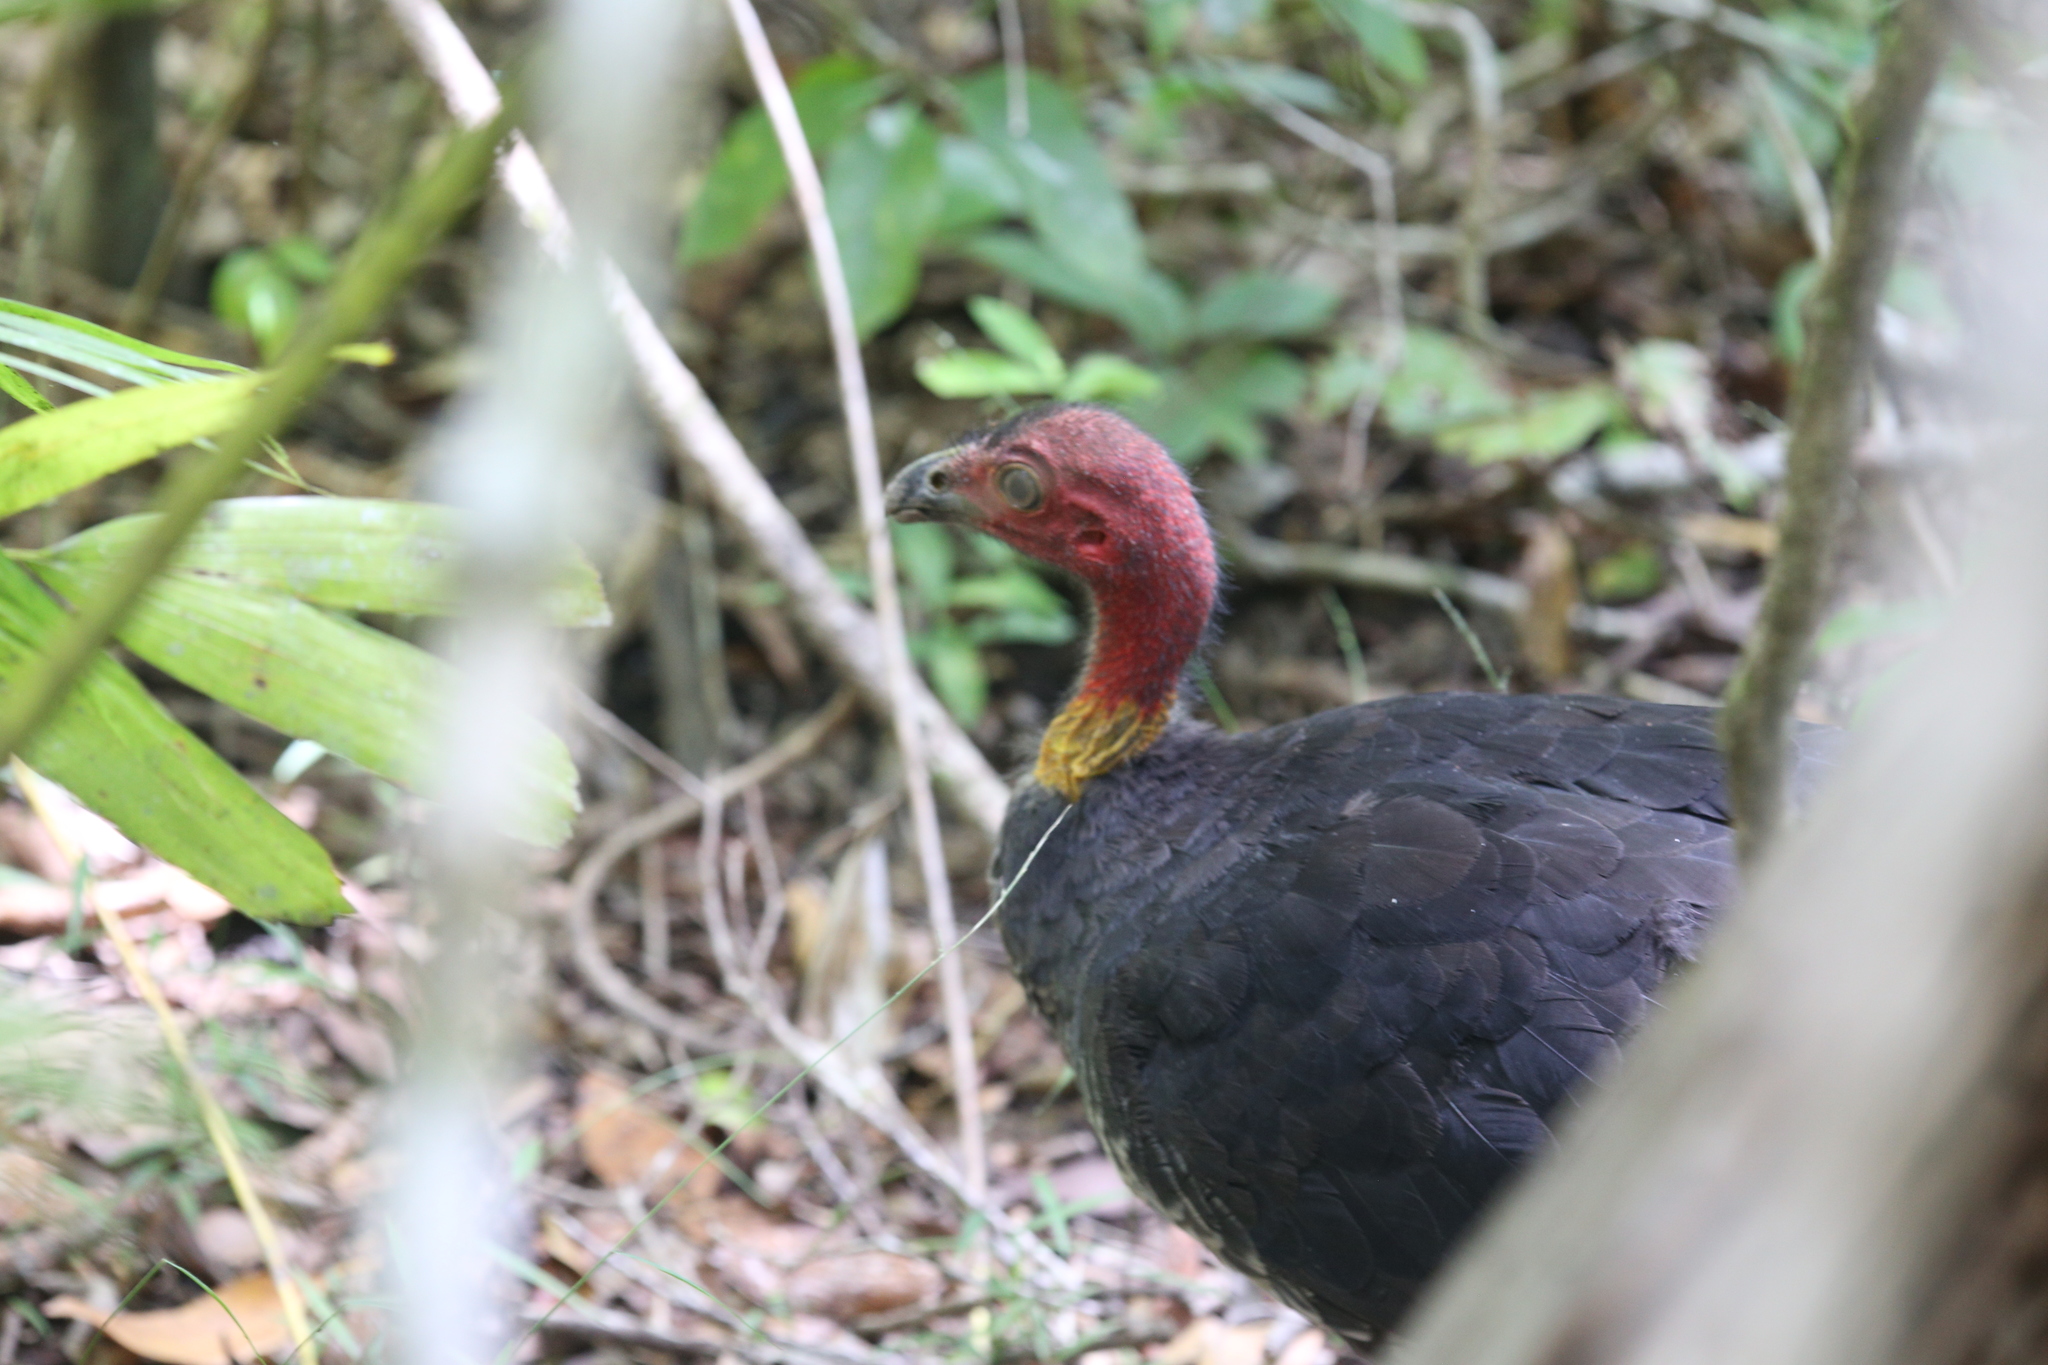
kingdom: Animalia
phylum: Chordata
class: Aves
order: Galliformes
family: Megapodiidae
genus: Alectura
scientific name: Alectura lathami
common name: Australian brushturkey
